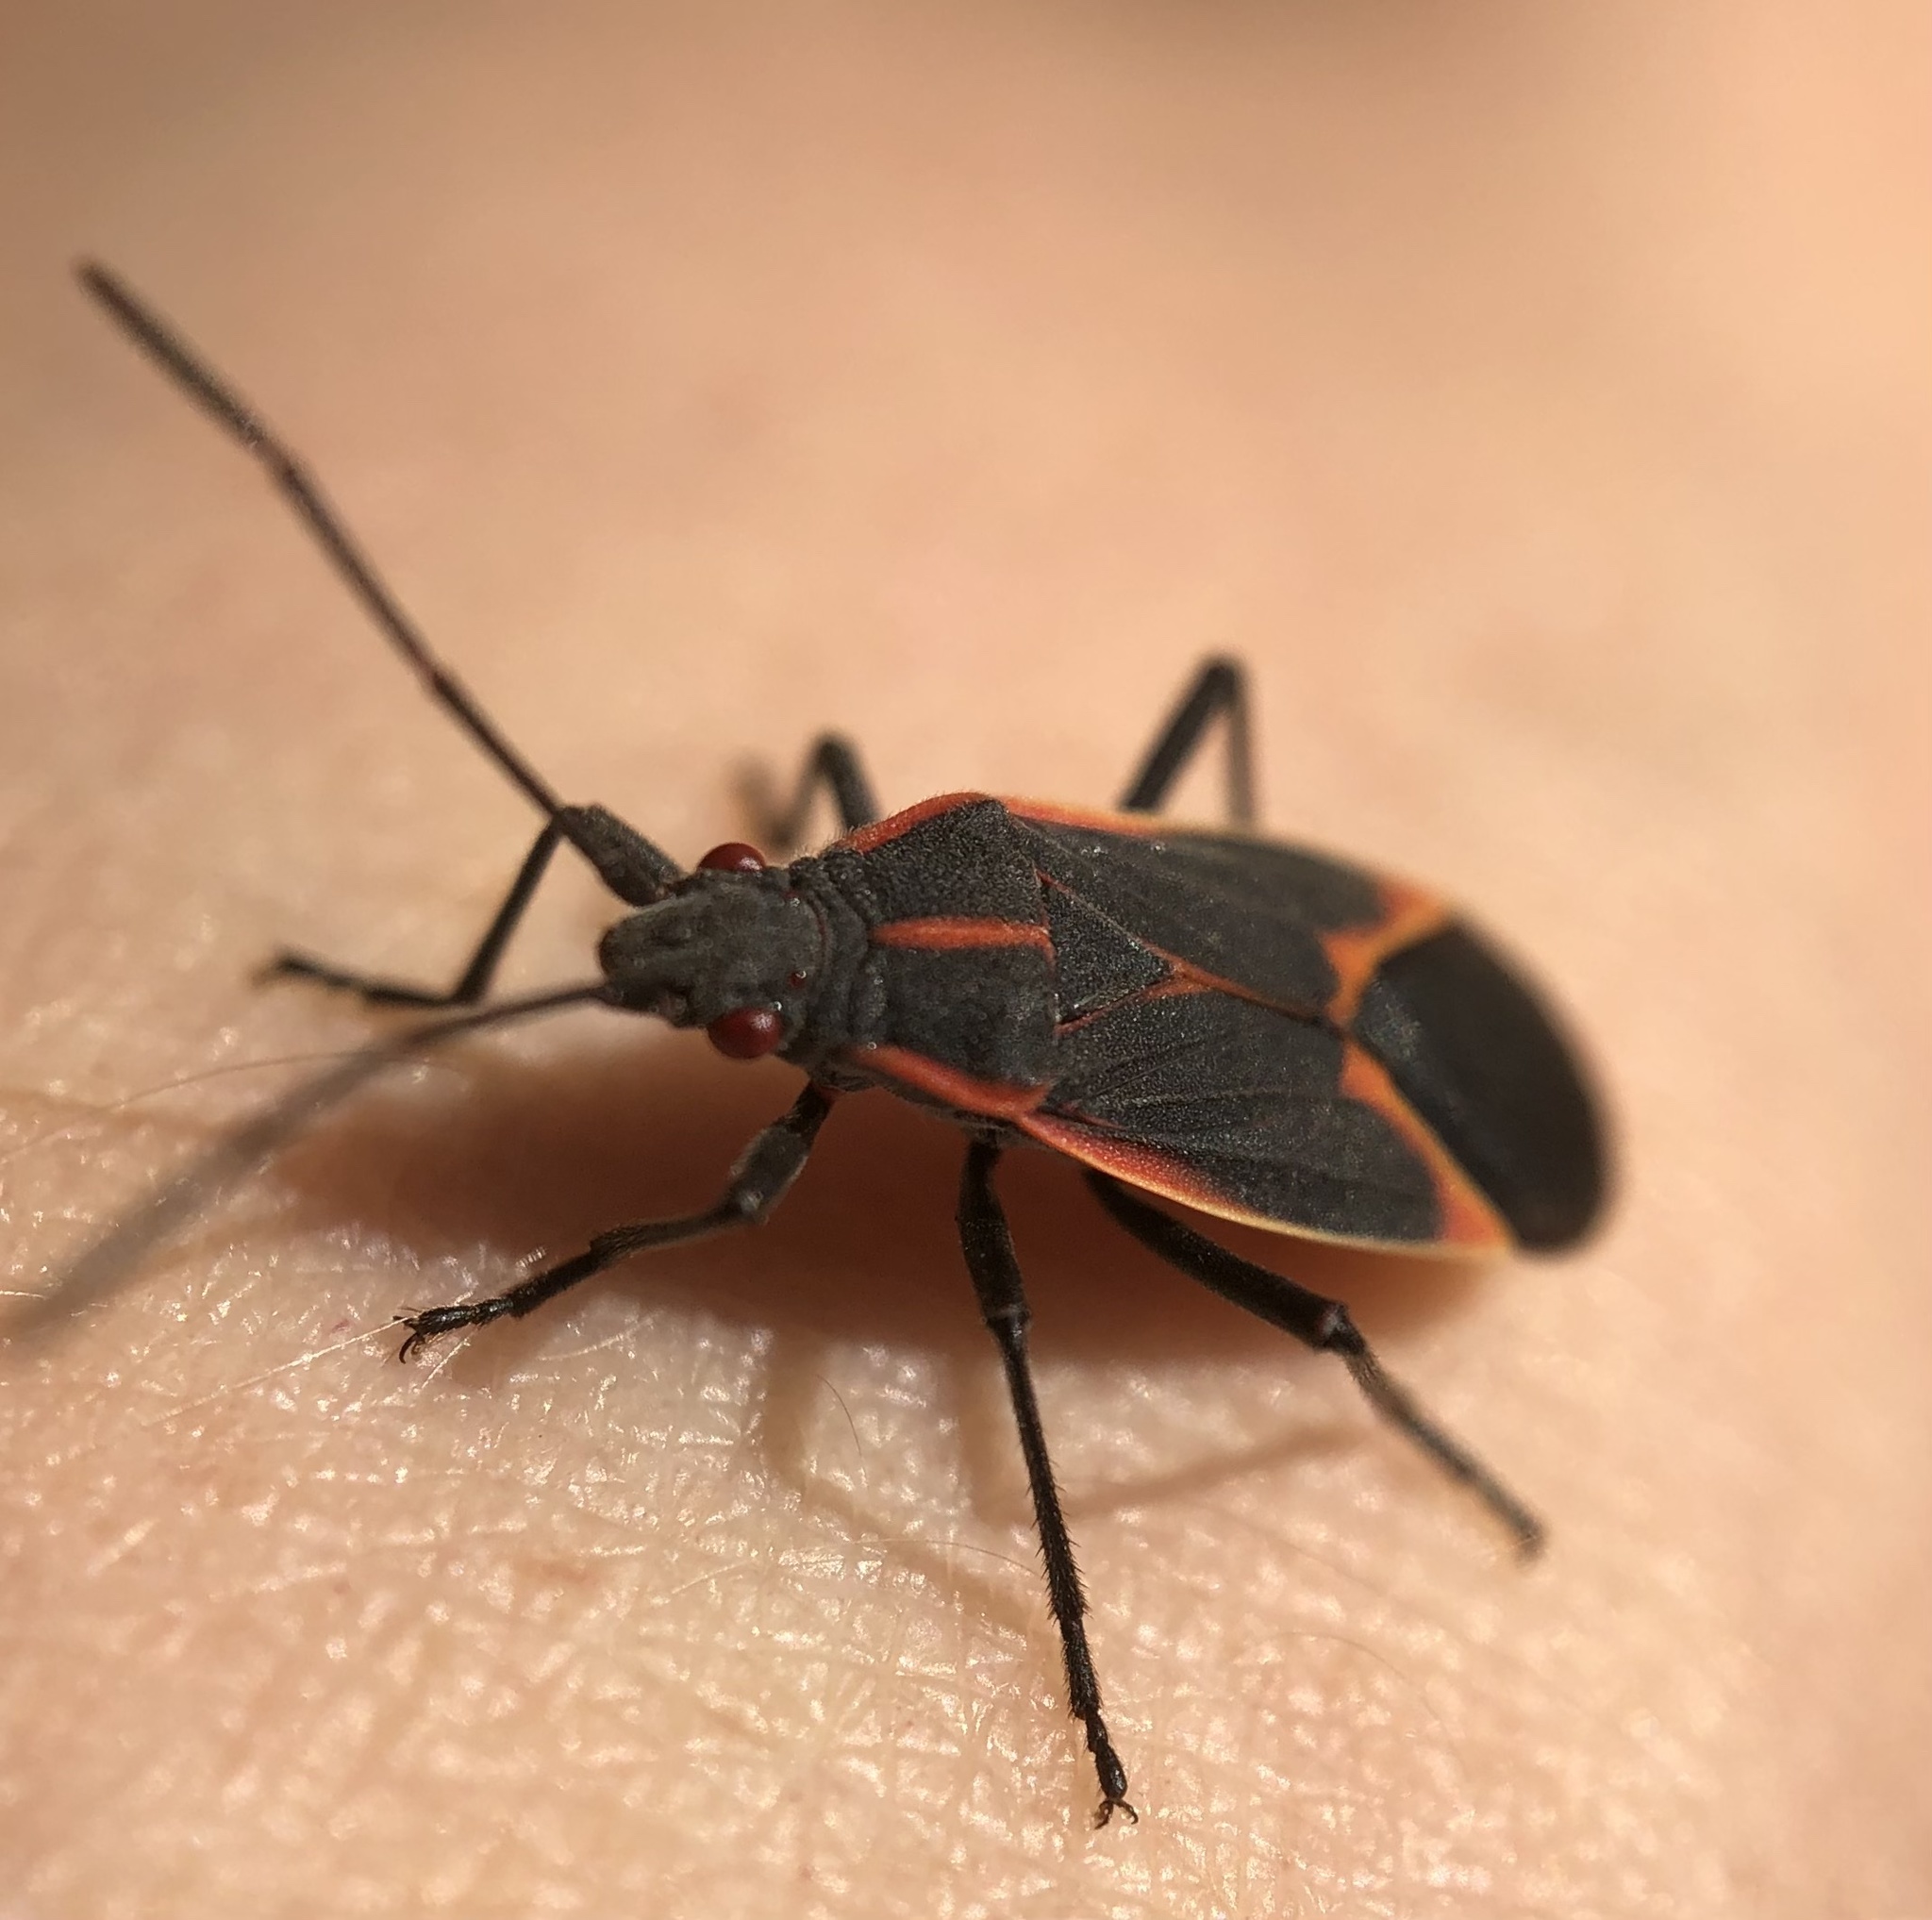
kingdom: Animalia
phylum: Arthropoda
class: Insecta
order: Hemiptera
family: Rhopalidae
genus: Boisea
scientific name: Boisea trivittata
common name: Boxelder bug
